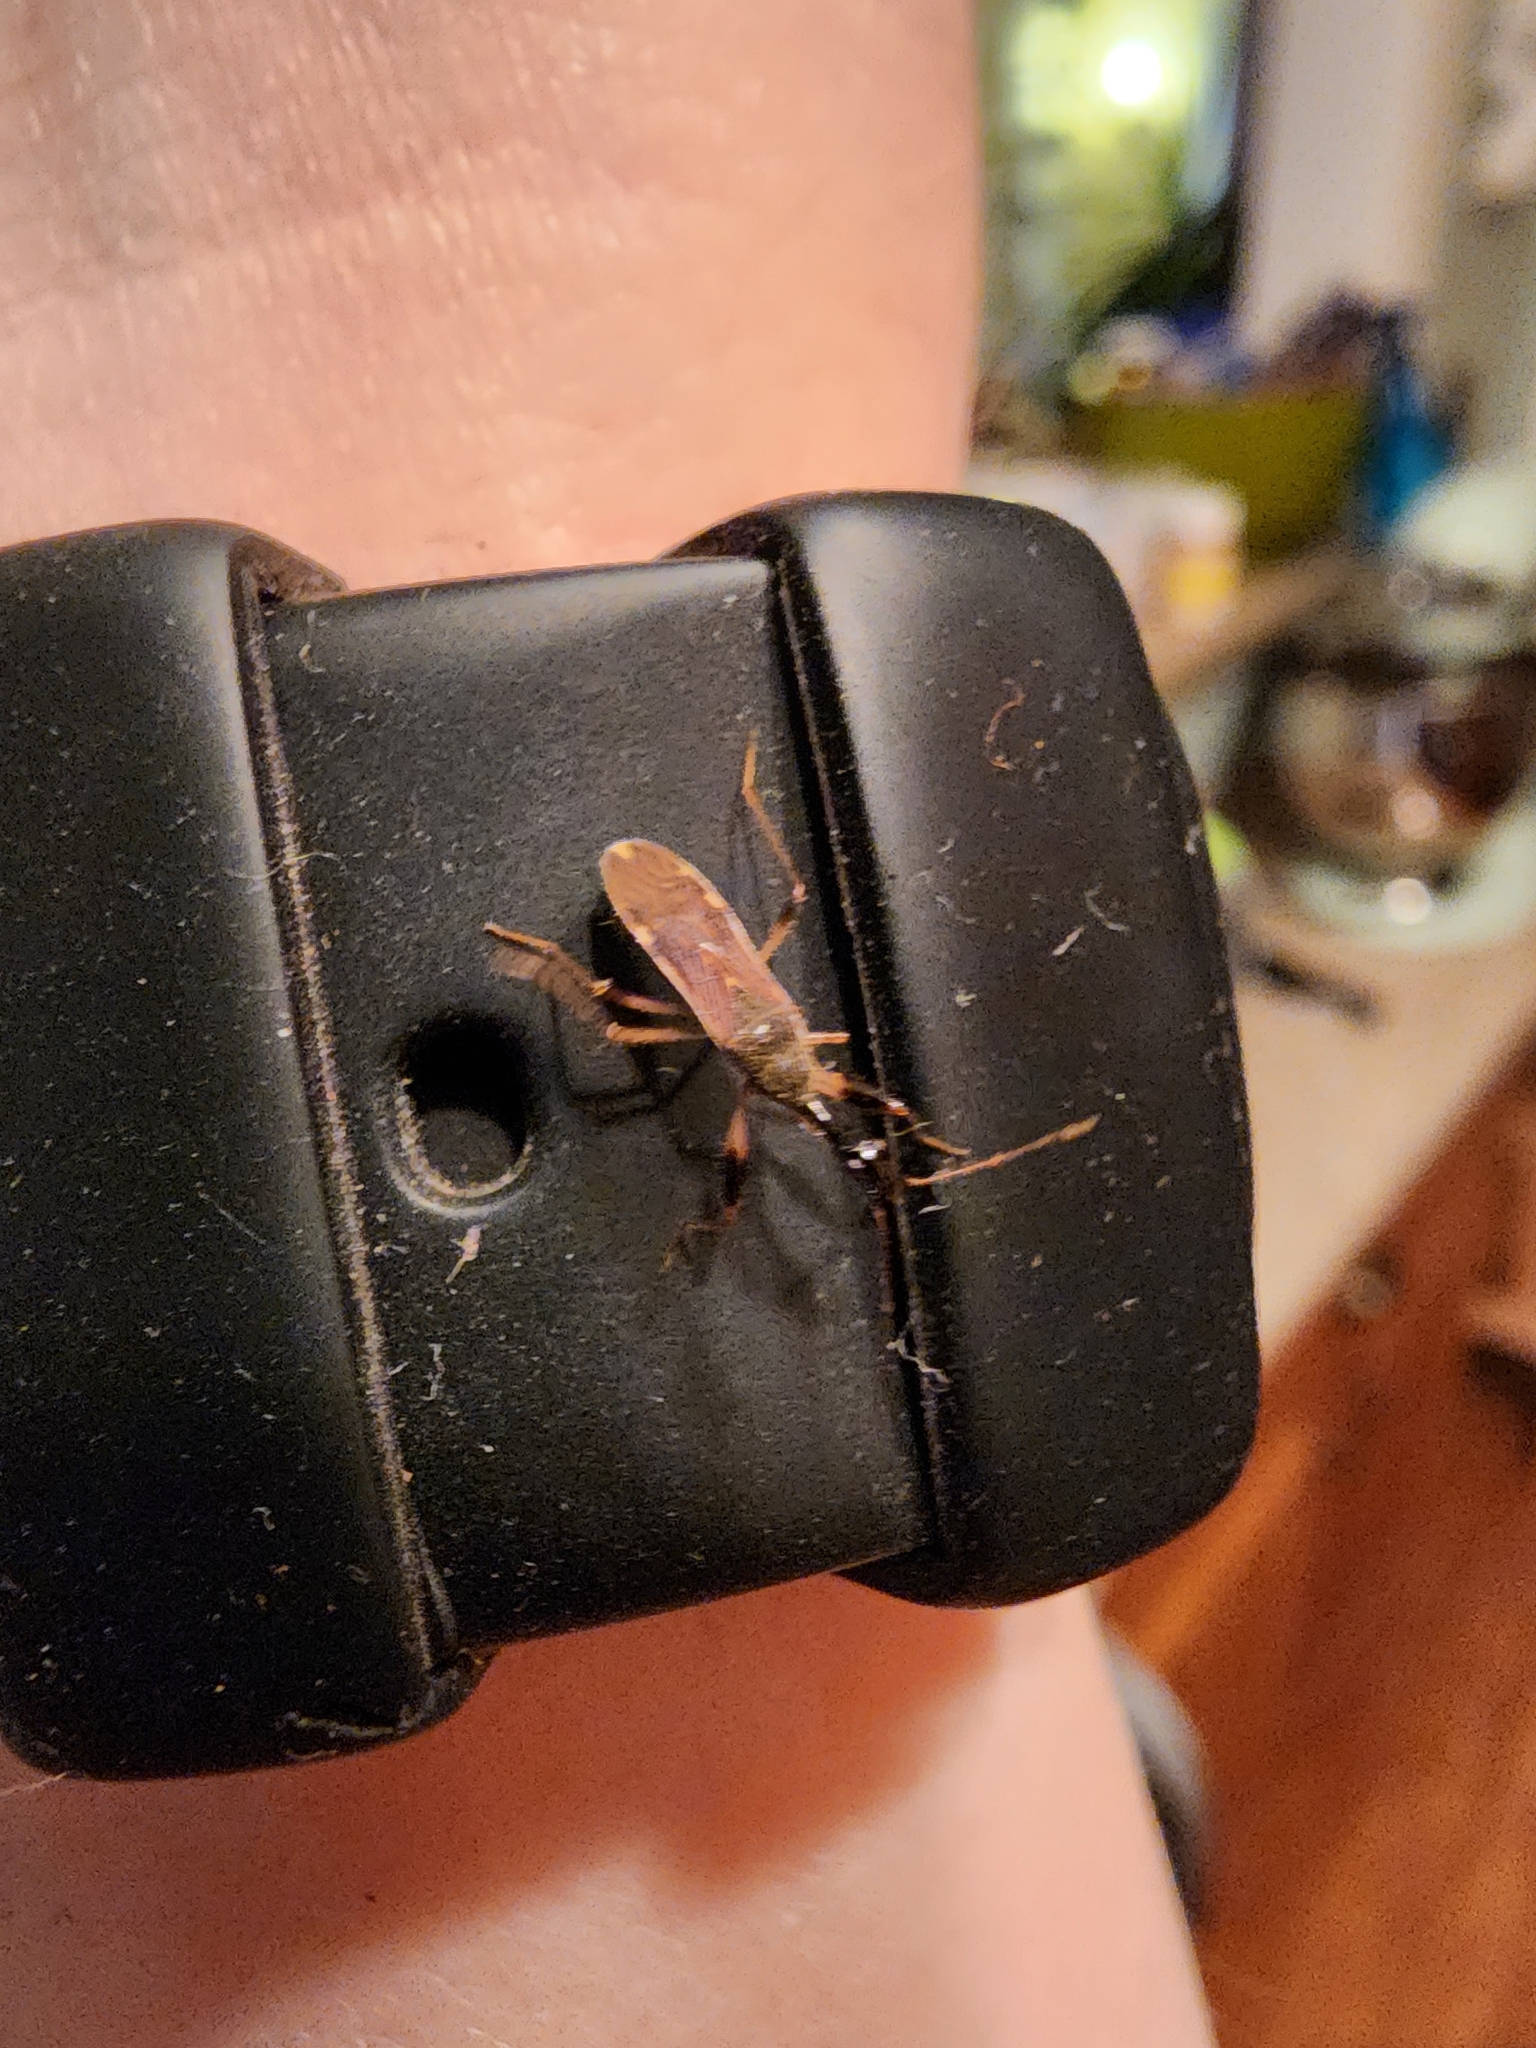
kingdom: Animalia
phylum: Arthropoda
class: Insecta
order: Hemiptera
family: Rhyparochromidae
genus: Myodocha
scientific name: Myodocha serripes
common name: Long-necked seed bug
